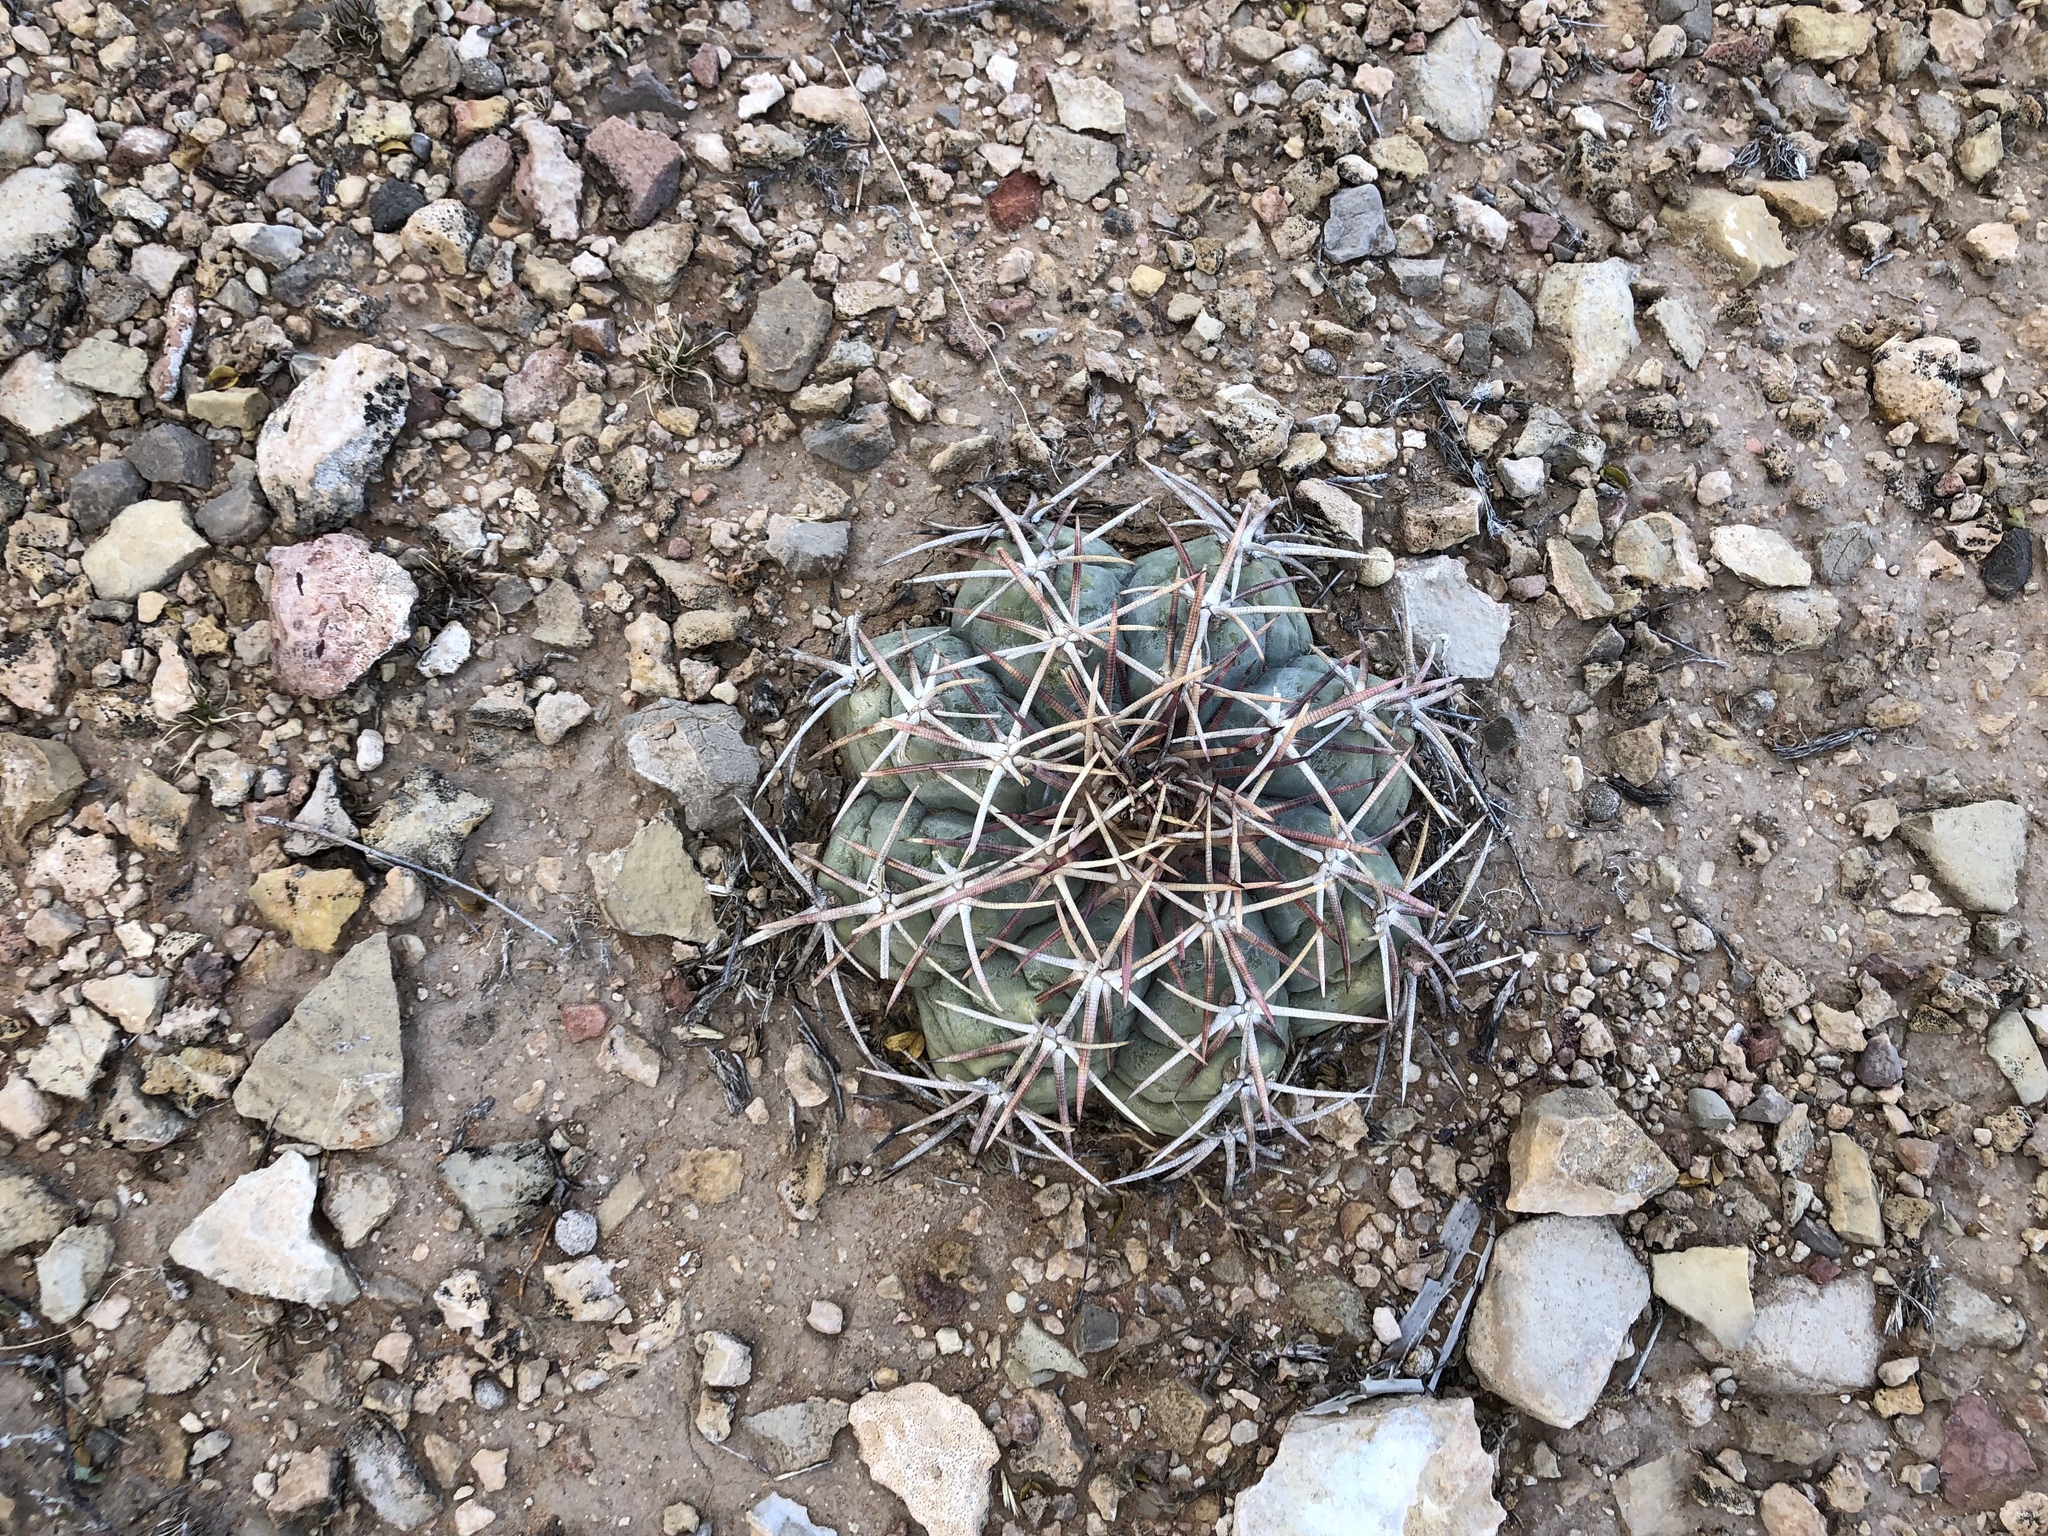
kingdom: Plantae
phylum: Tracheophyta
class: Magnoliopsida
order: Caryophyllales
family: Cactaceae
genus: Echinocactus
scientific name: Echinocactus horizonthalonius
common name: Devilshead
